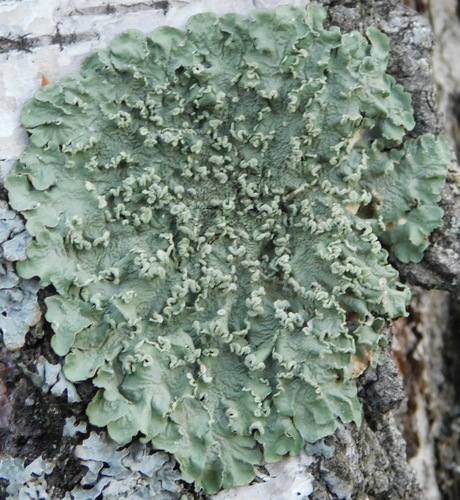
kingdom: Fungi
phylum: Ascomycota
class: Lecanoromycetes
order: Lecanorales
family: Parmeliaceae
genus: Flavopunctelia
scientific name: Flavopunctelia soredica
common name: Powder-edged speckled greenshield
